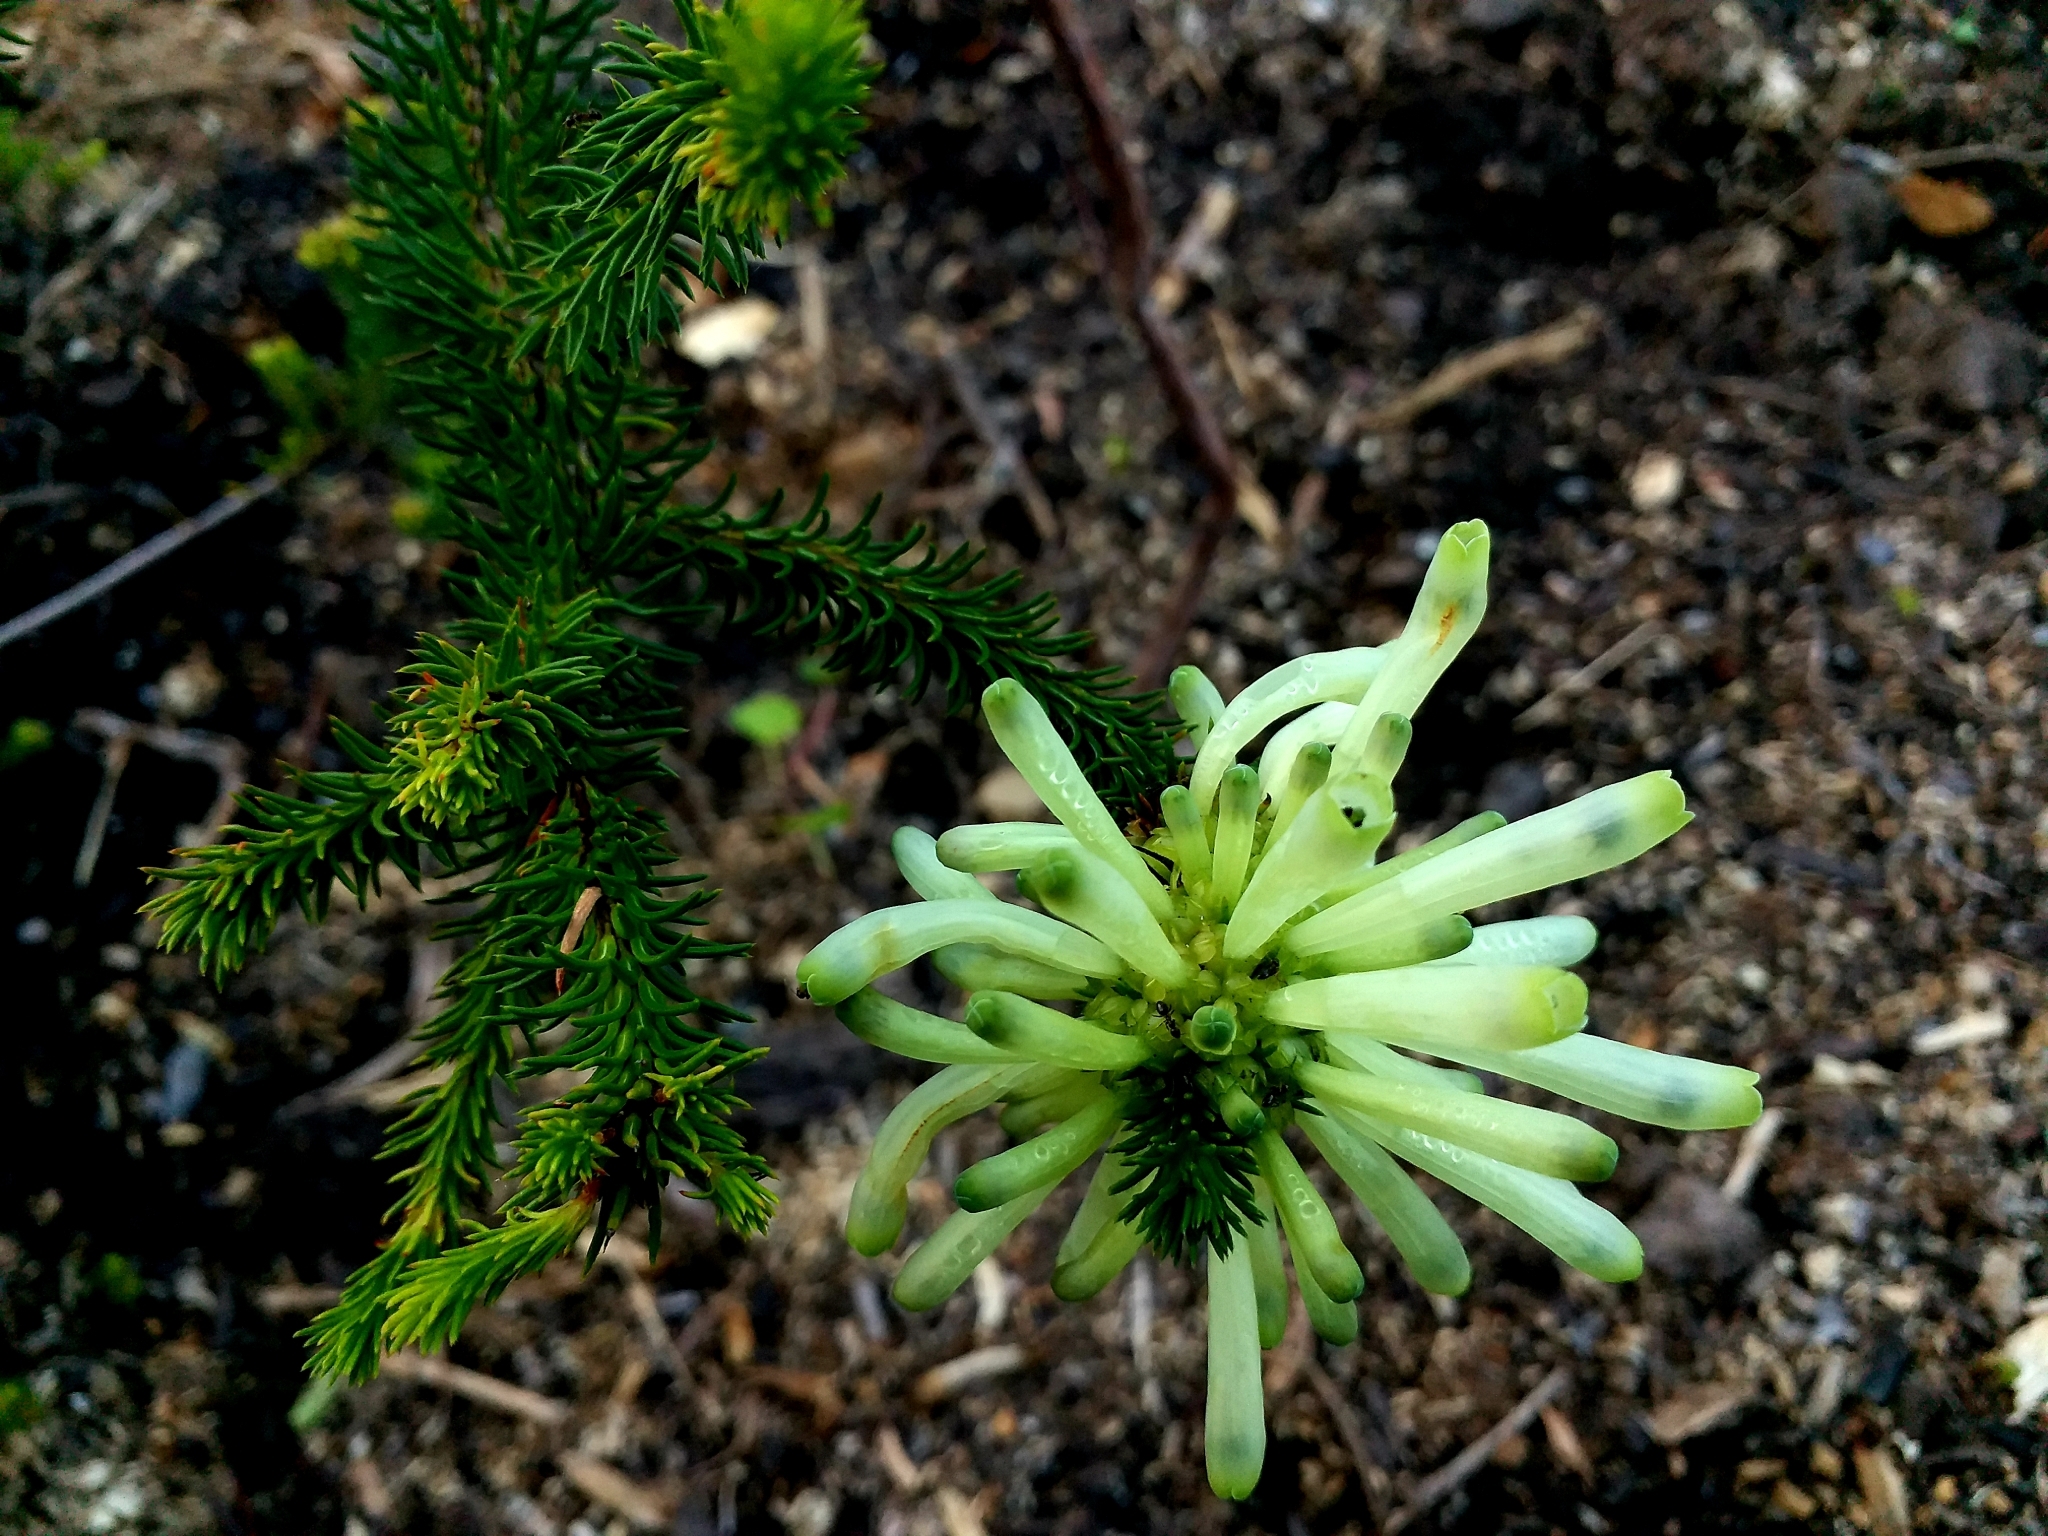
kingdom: Plantae
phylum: Tracheophyta
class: Magnoliopsida
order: Ericales
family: Ericaceae
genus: Erica
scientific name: Erica sessiliflora
